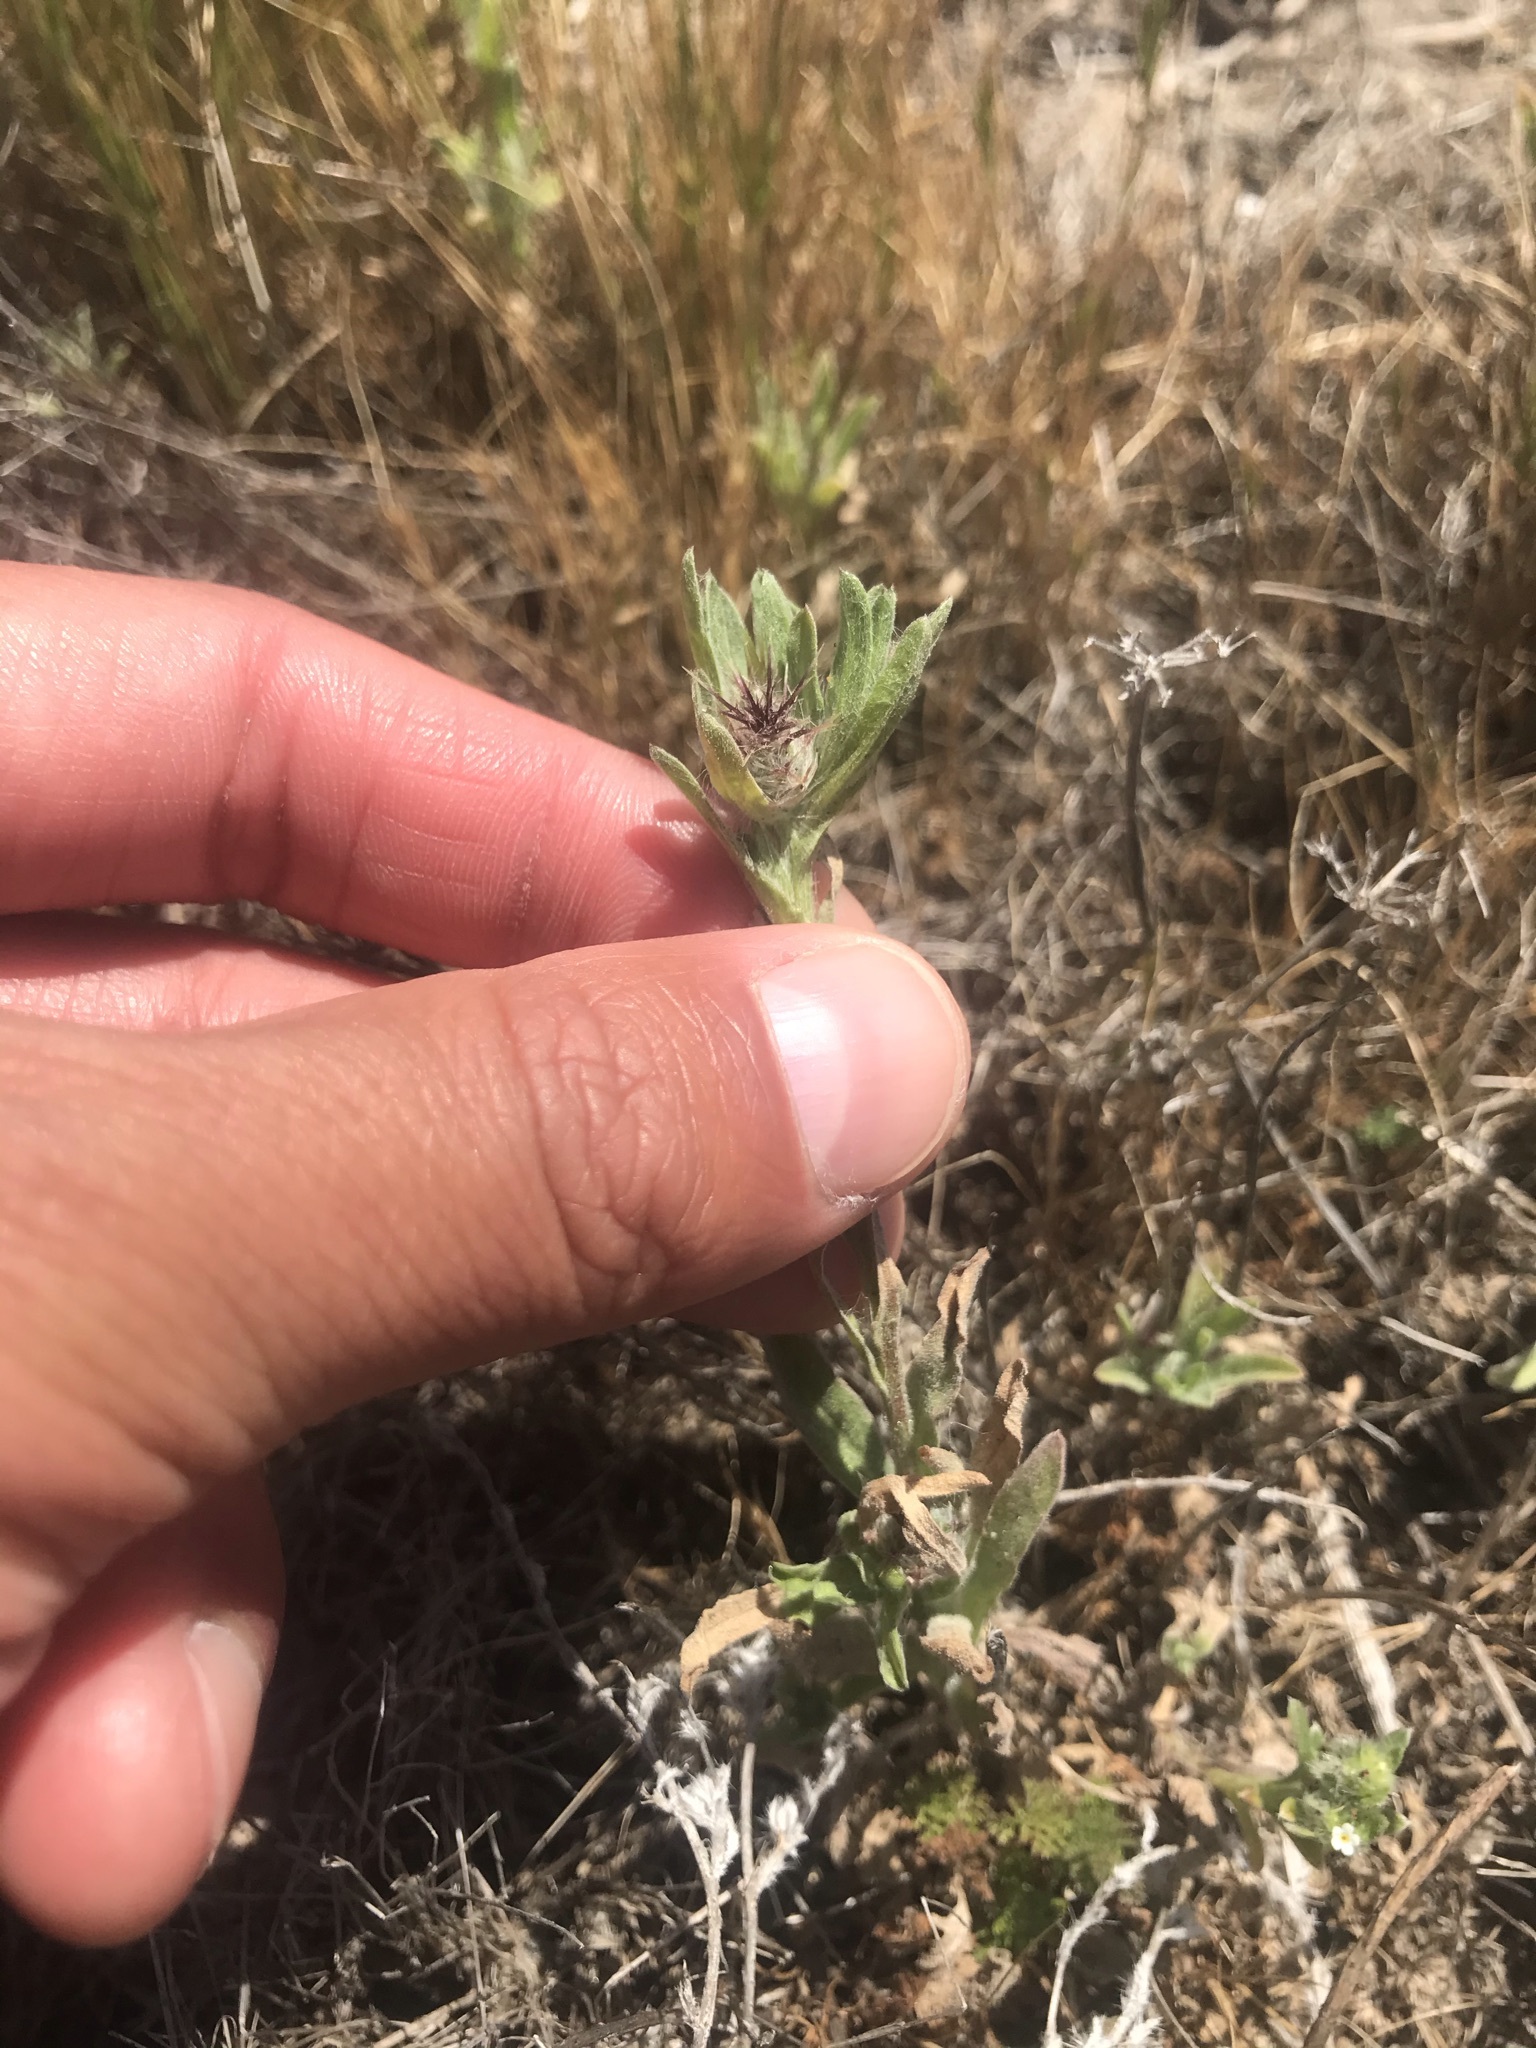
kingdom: Plantae
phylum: Tracheophyta
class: Magnoliopsida
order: Asterales
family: Asteraceae
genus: Centaurea
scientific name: Centaurea melitensis
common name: Maltese star-thistle
